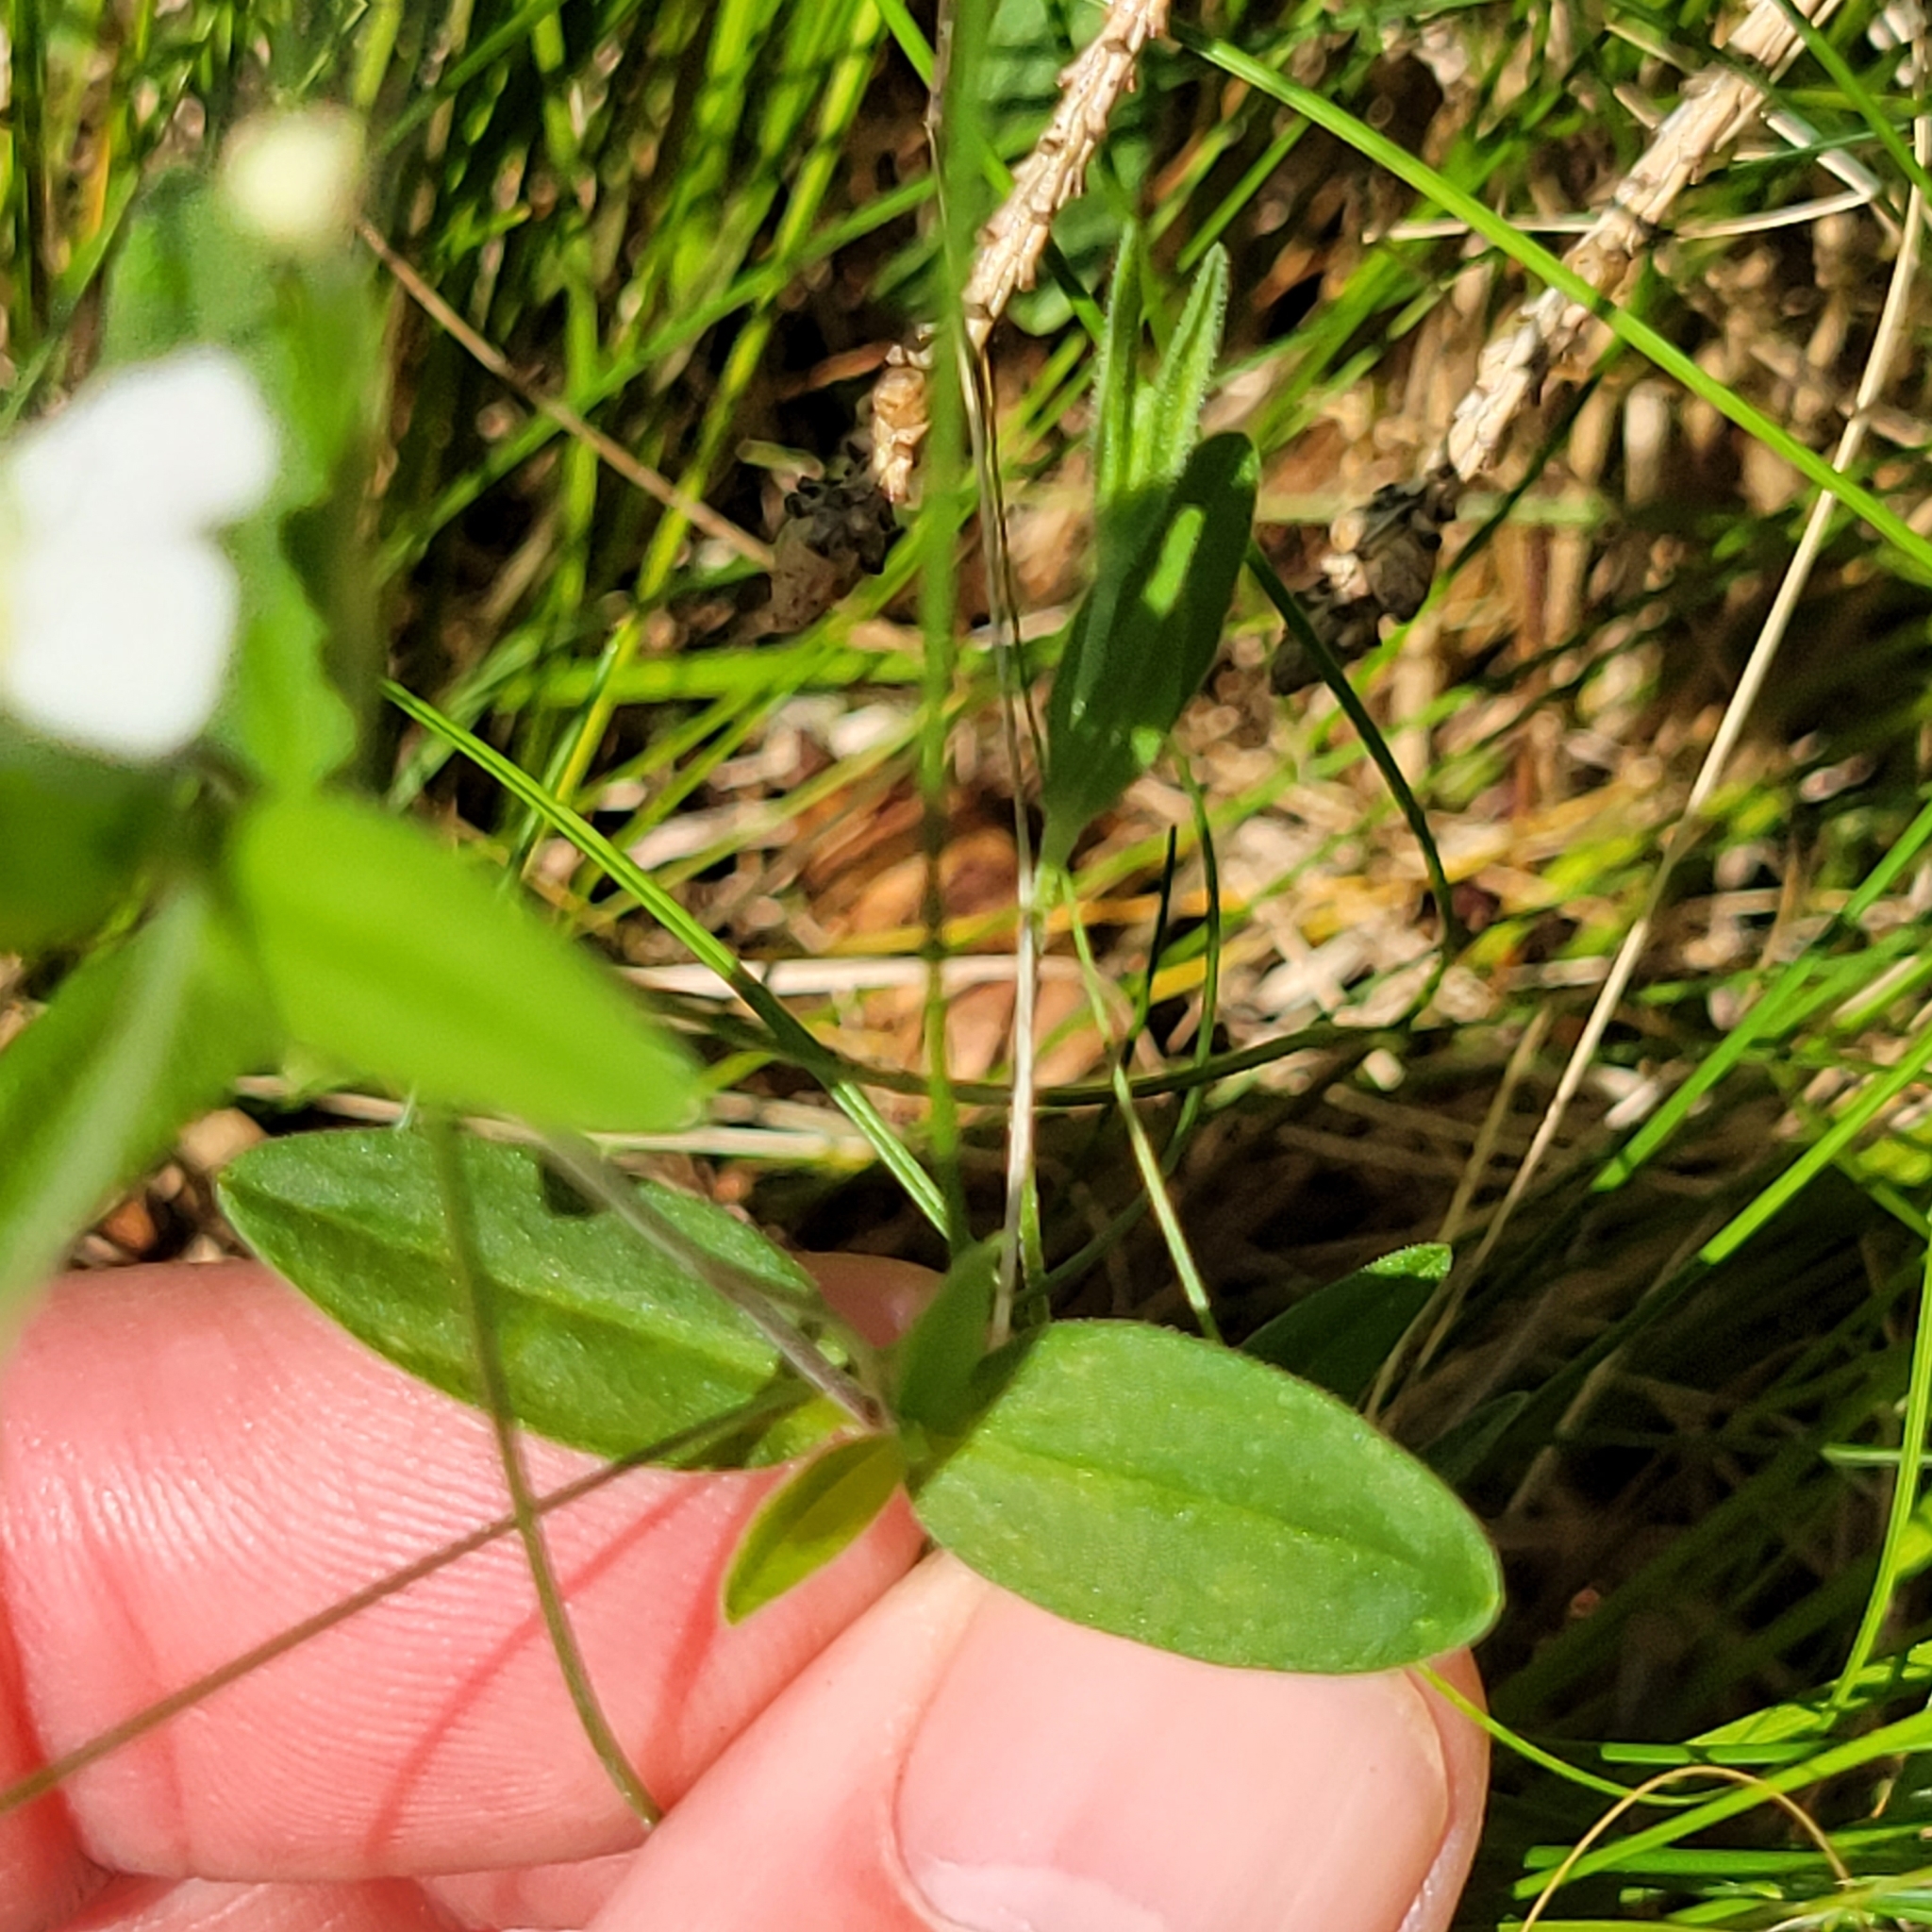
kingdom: Plantae
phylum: Tracheophyta
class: Magnoliopsida
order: Caryophyllales
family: Caryophyllaceae
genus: Moehringia
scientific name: Moehringia lateriflora
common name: Blunt-leaved sandwort
